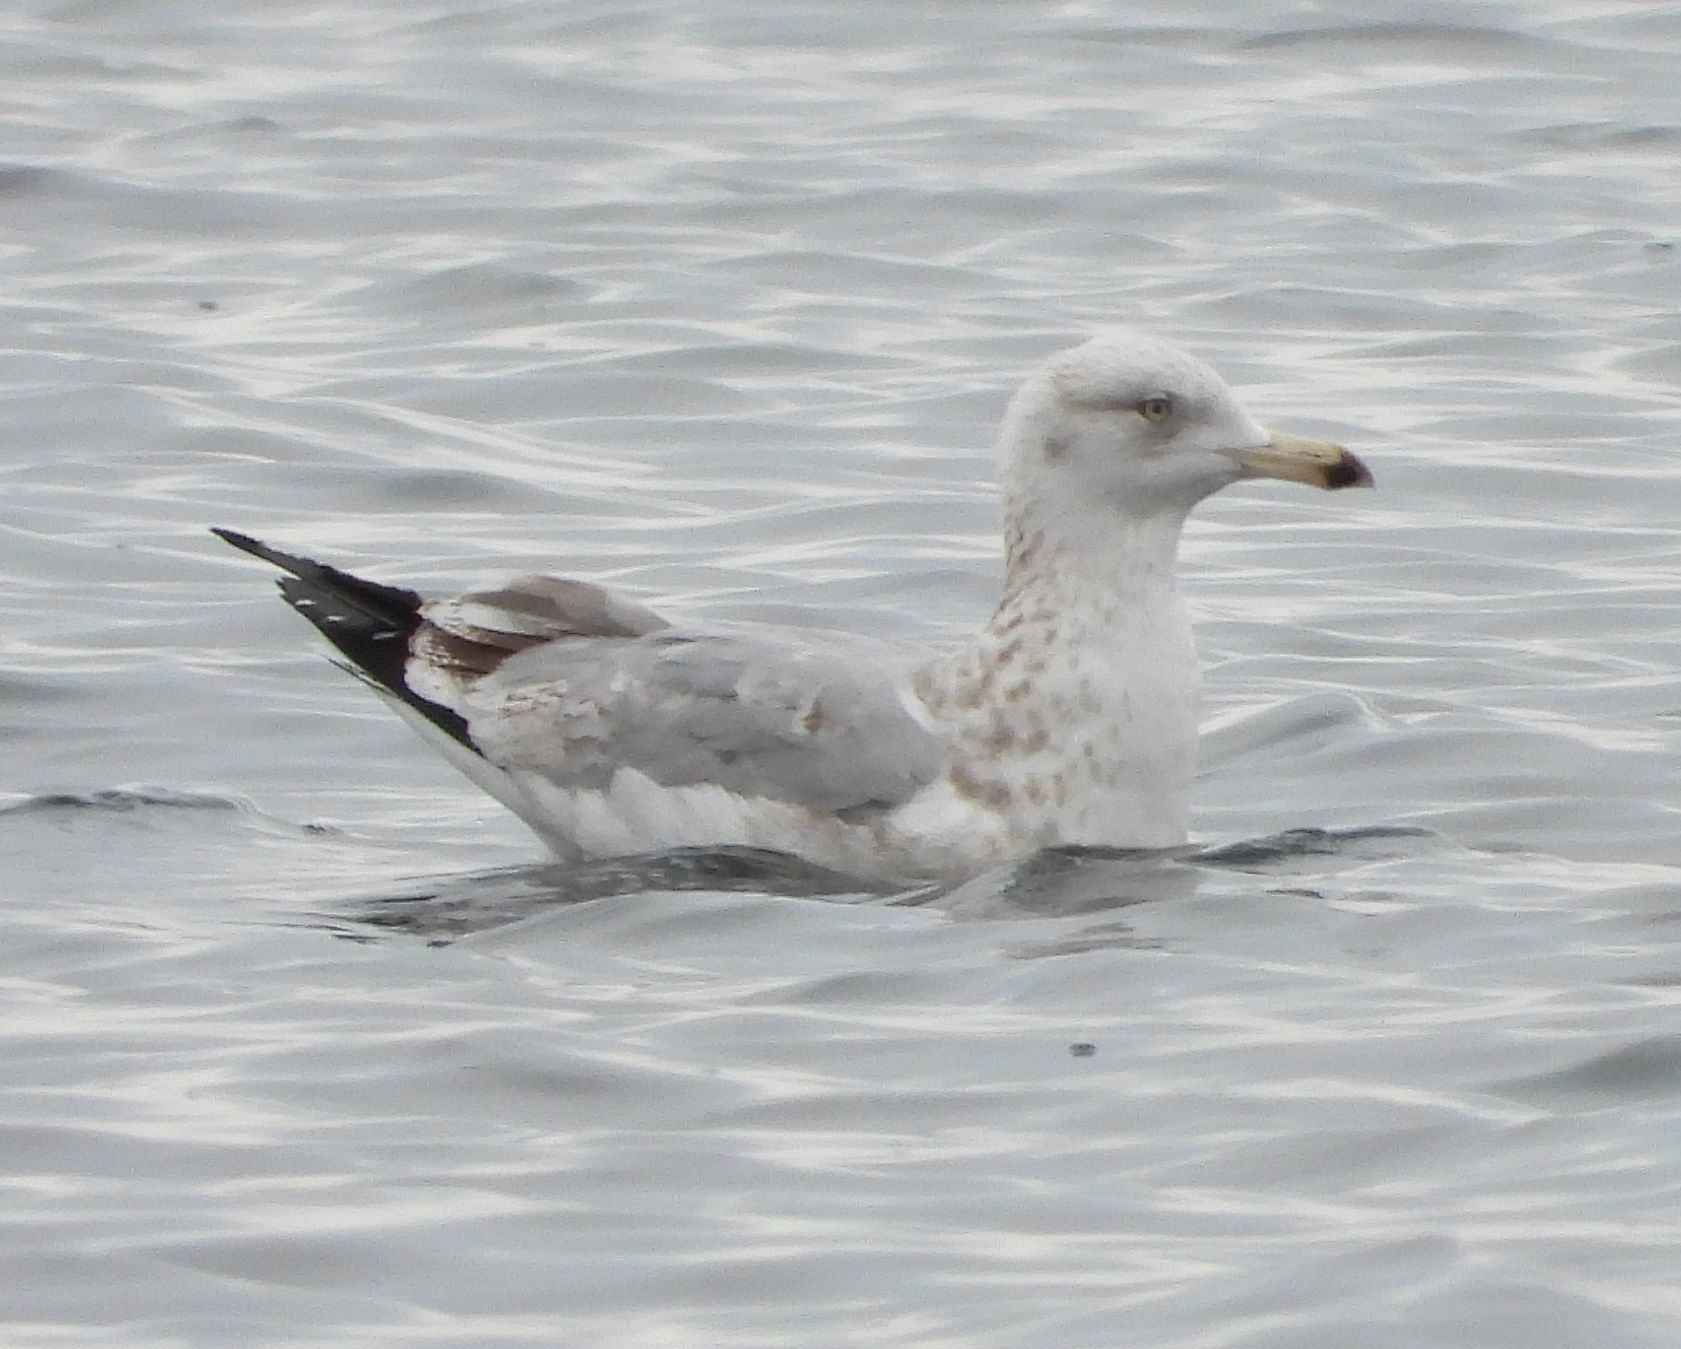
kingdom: Animalia
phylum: Chordata
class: Aves
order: Charadriiformes
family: Laridae
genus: Larus
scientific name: Larus argentatus
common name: Herring gull
